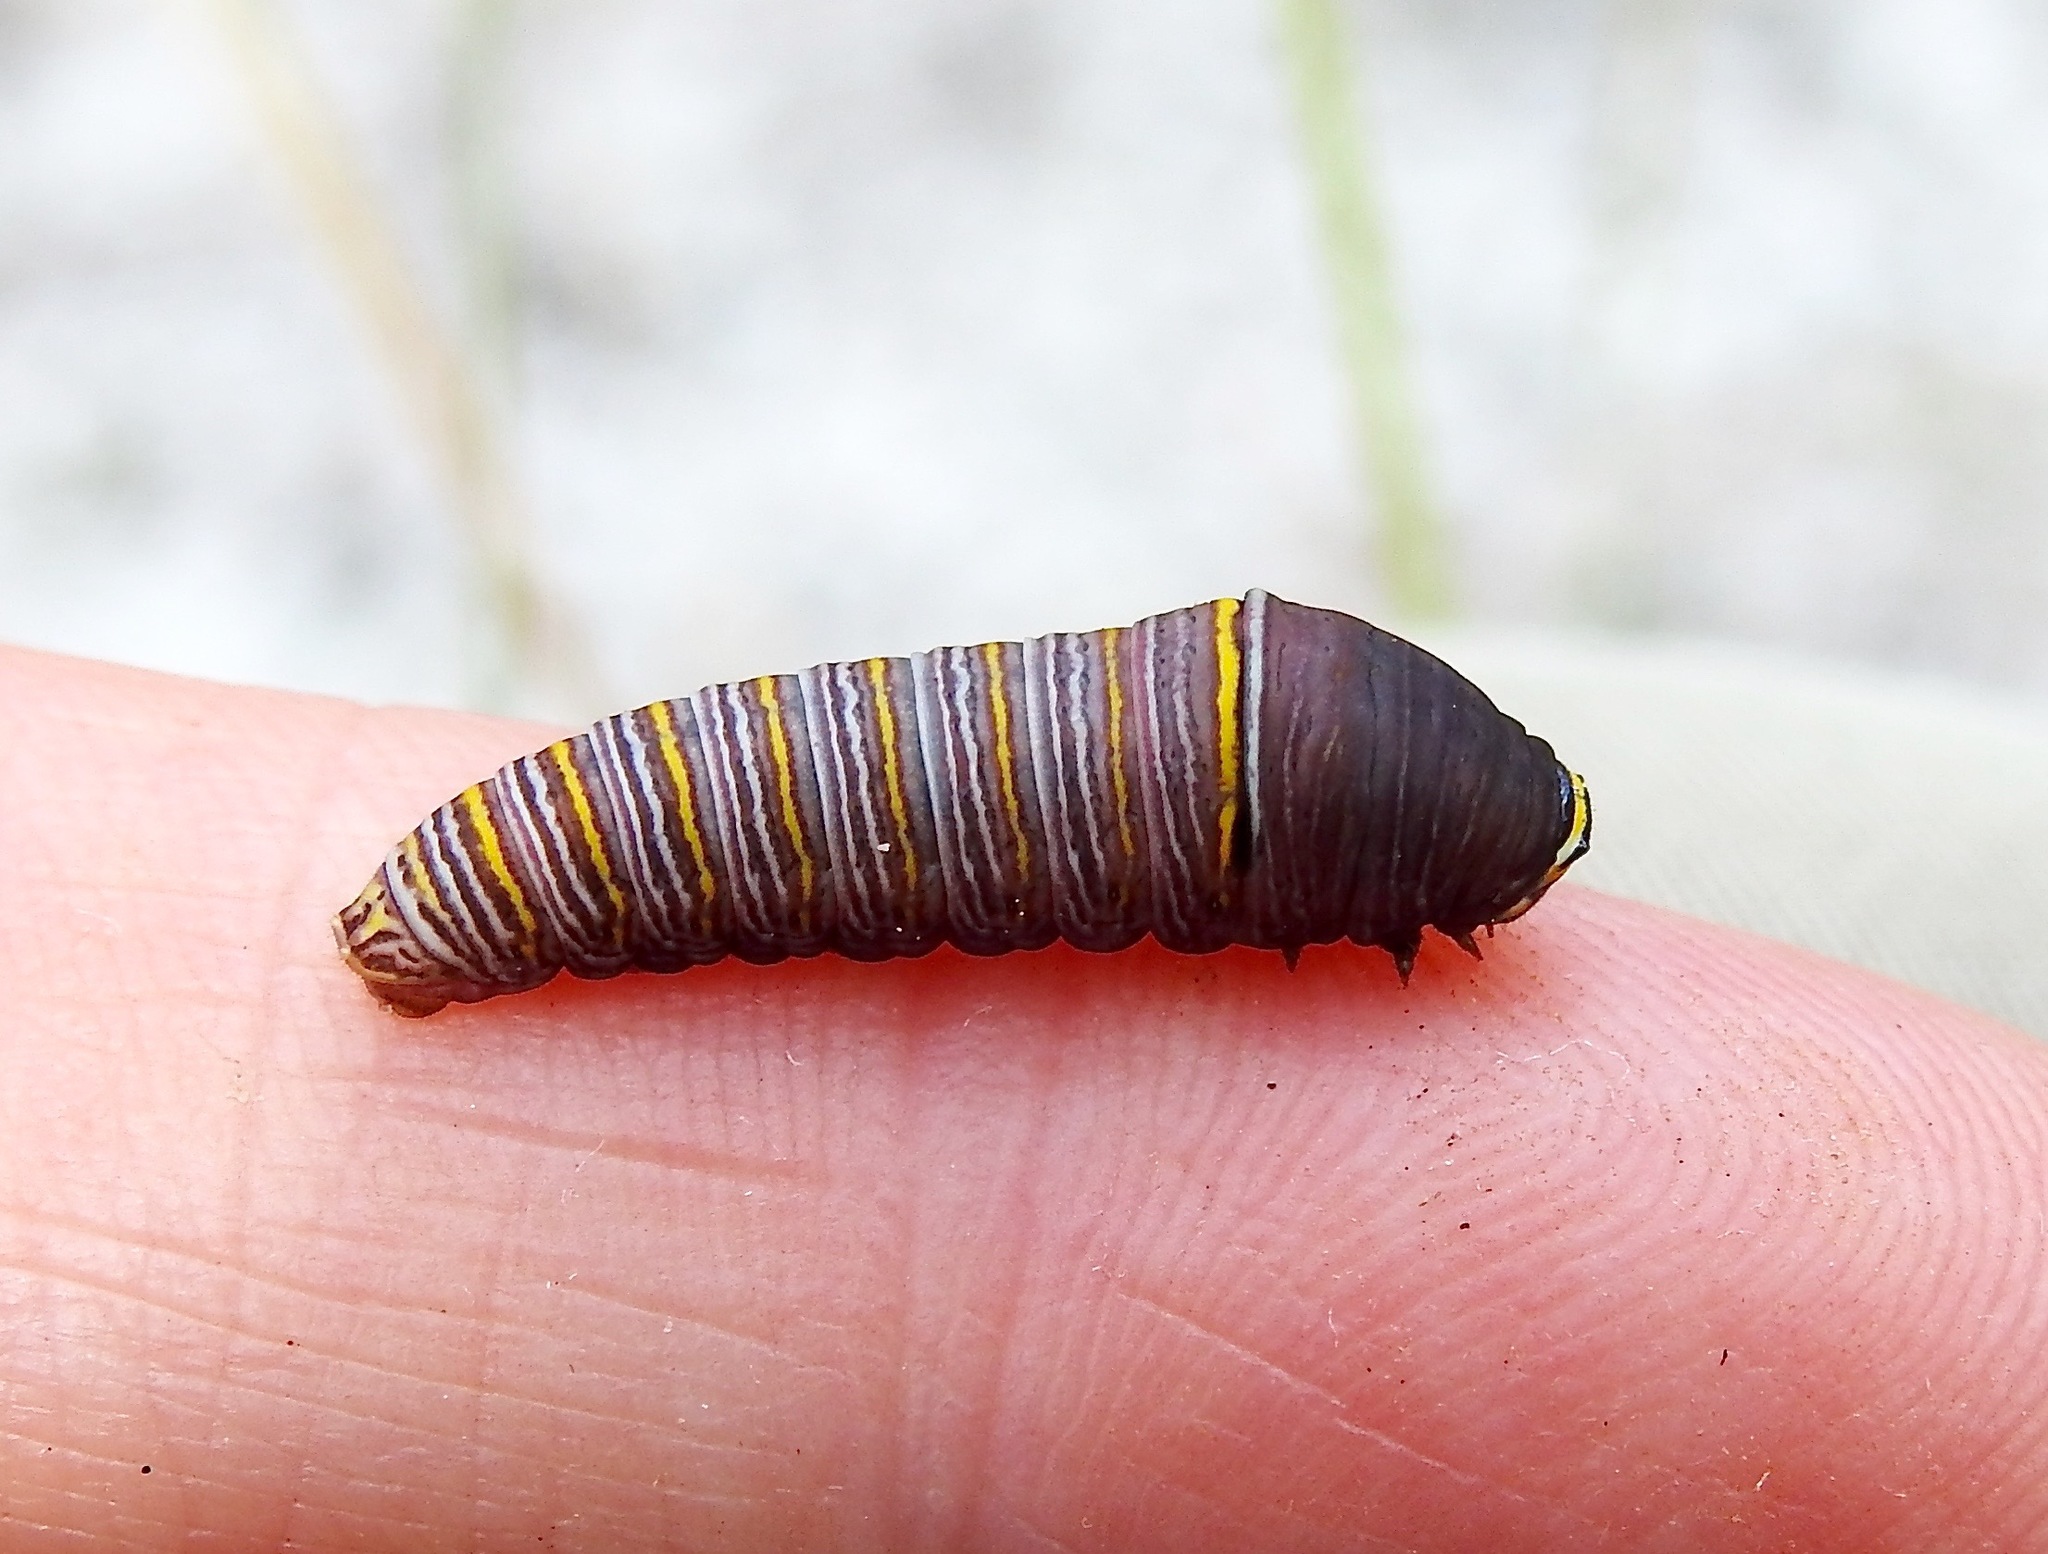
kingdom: Animalia
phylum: Arthropoda
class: Insecta
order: Lepidoptera
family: Papilionidae
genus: Protographium
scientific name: Protographium marcellus
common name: Zebra swallowtail
